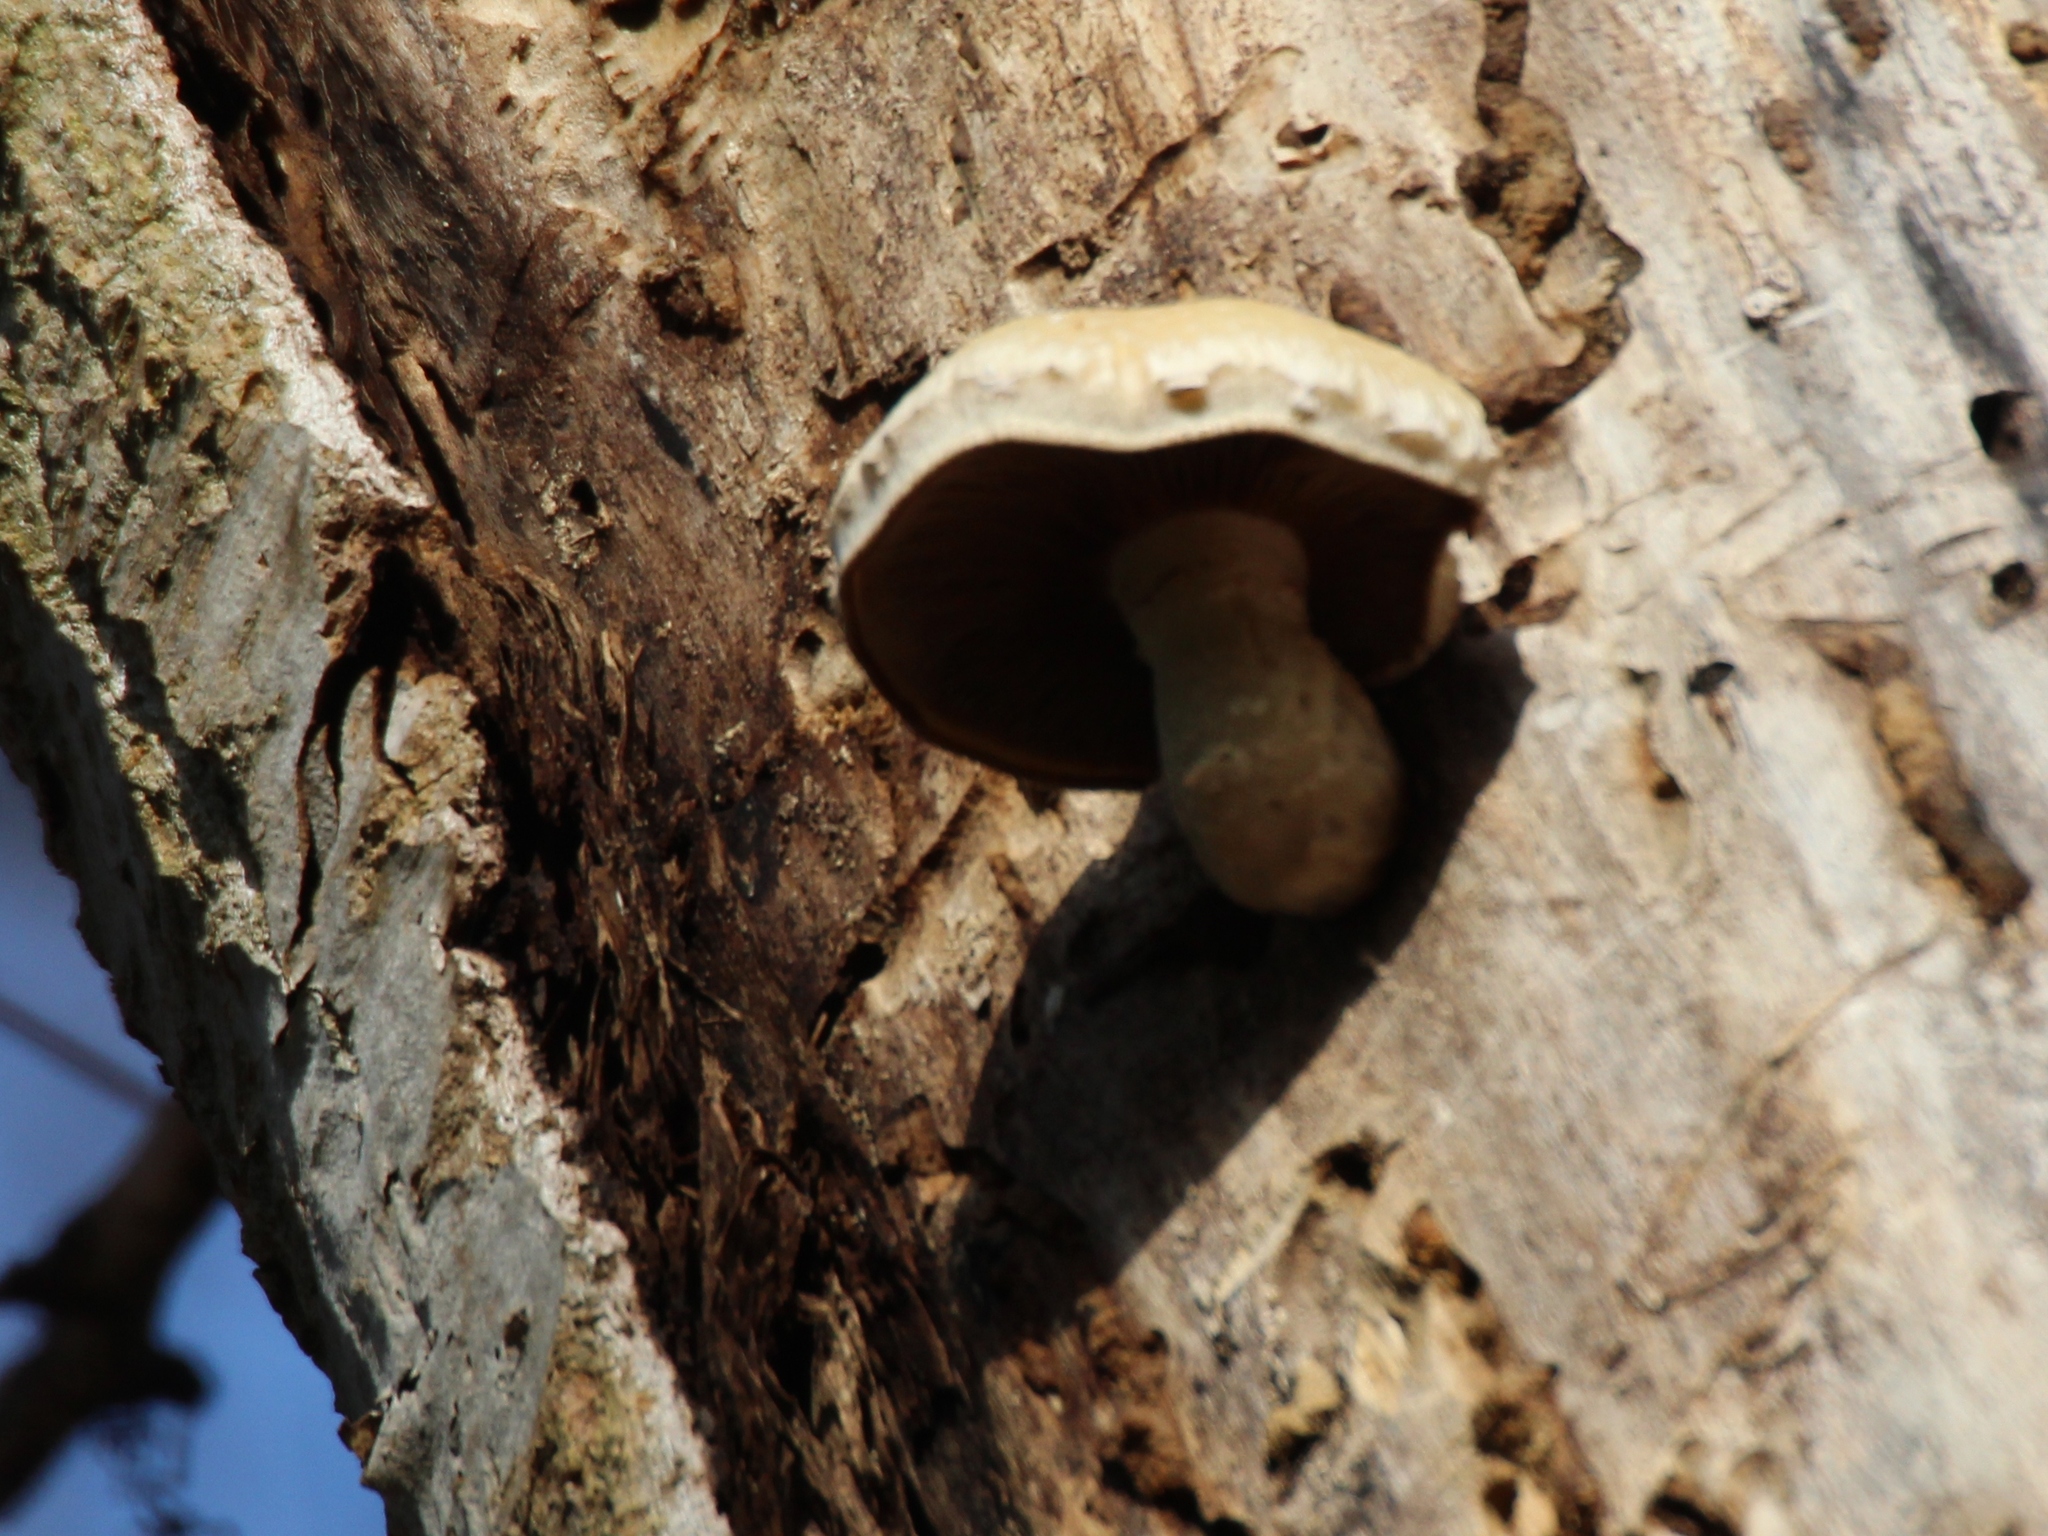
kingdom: Fungi
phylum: Basidiomycota
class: Agaricomycetes
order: Agaricales
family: Strophariaceae
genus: Pholiota
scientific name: Pholiota populnea
